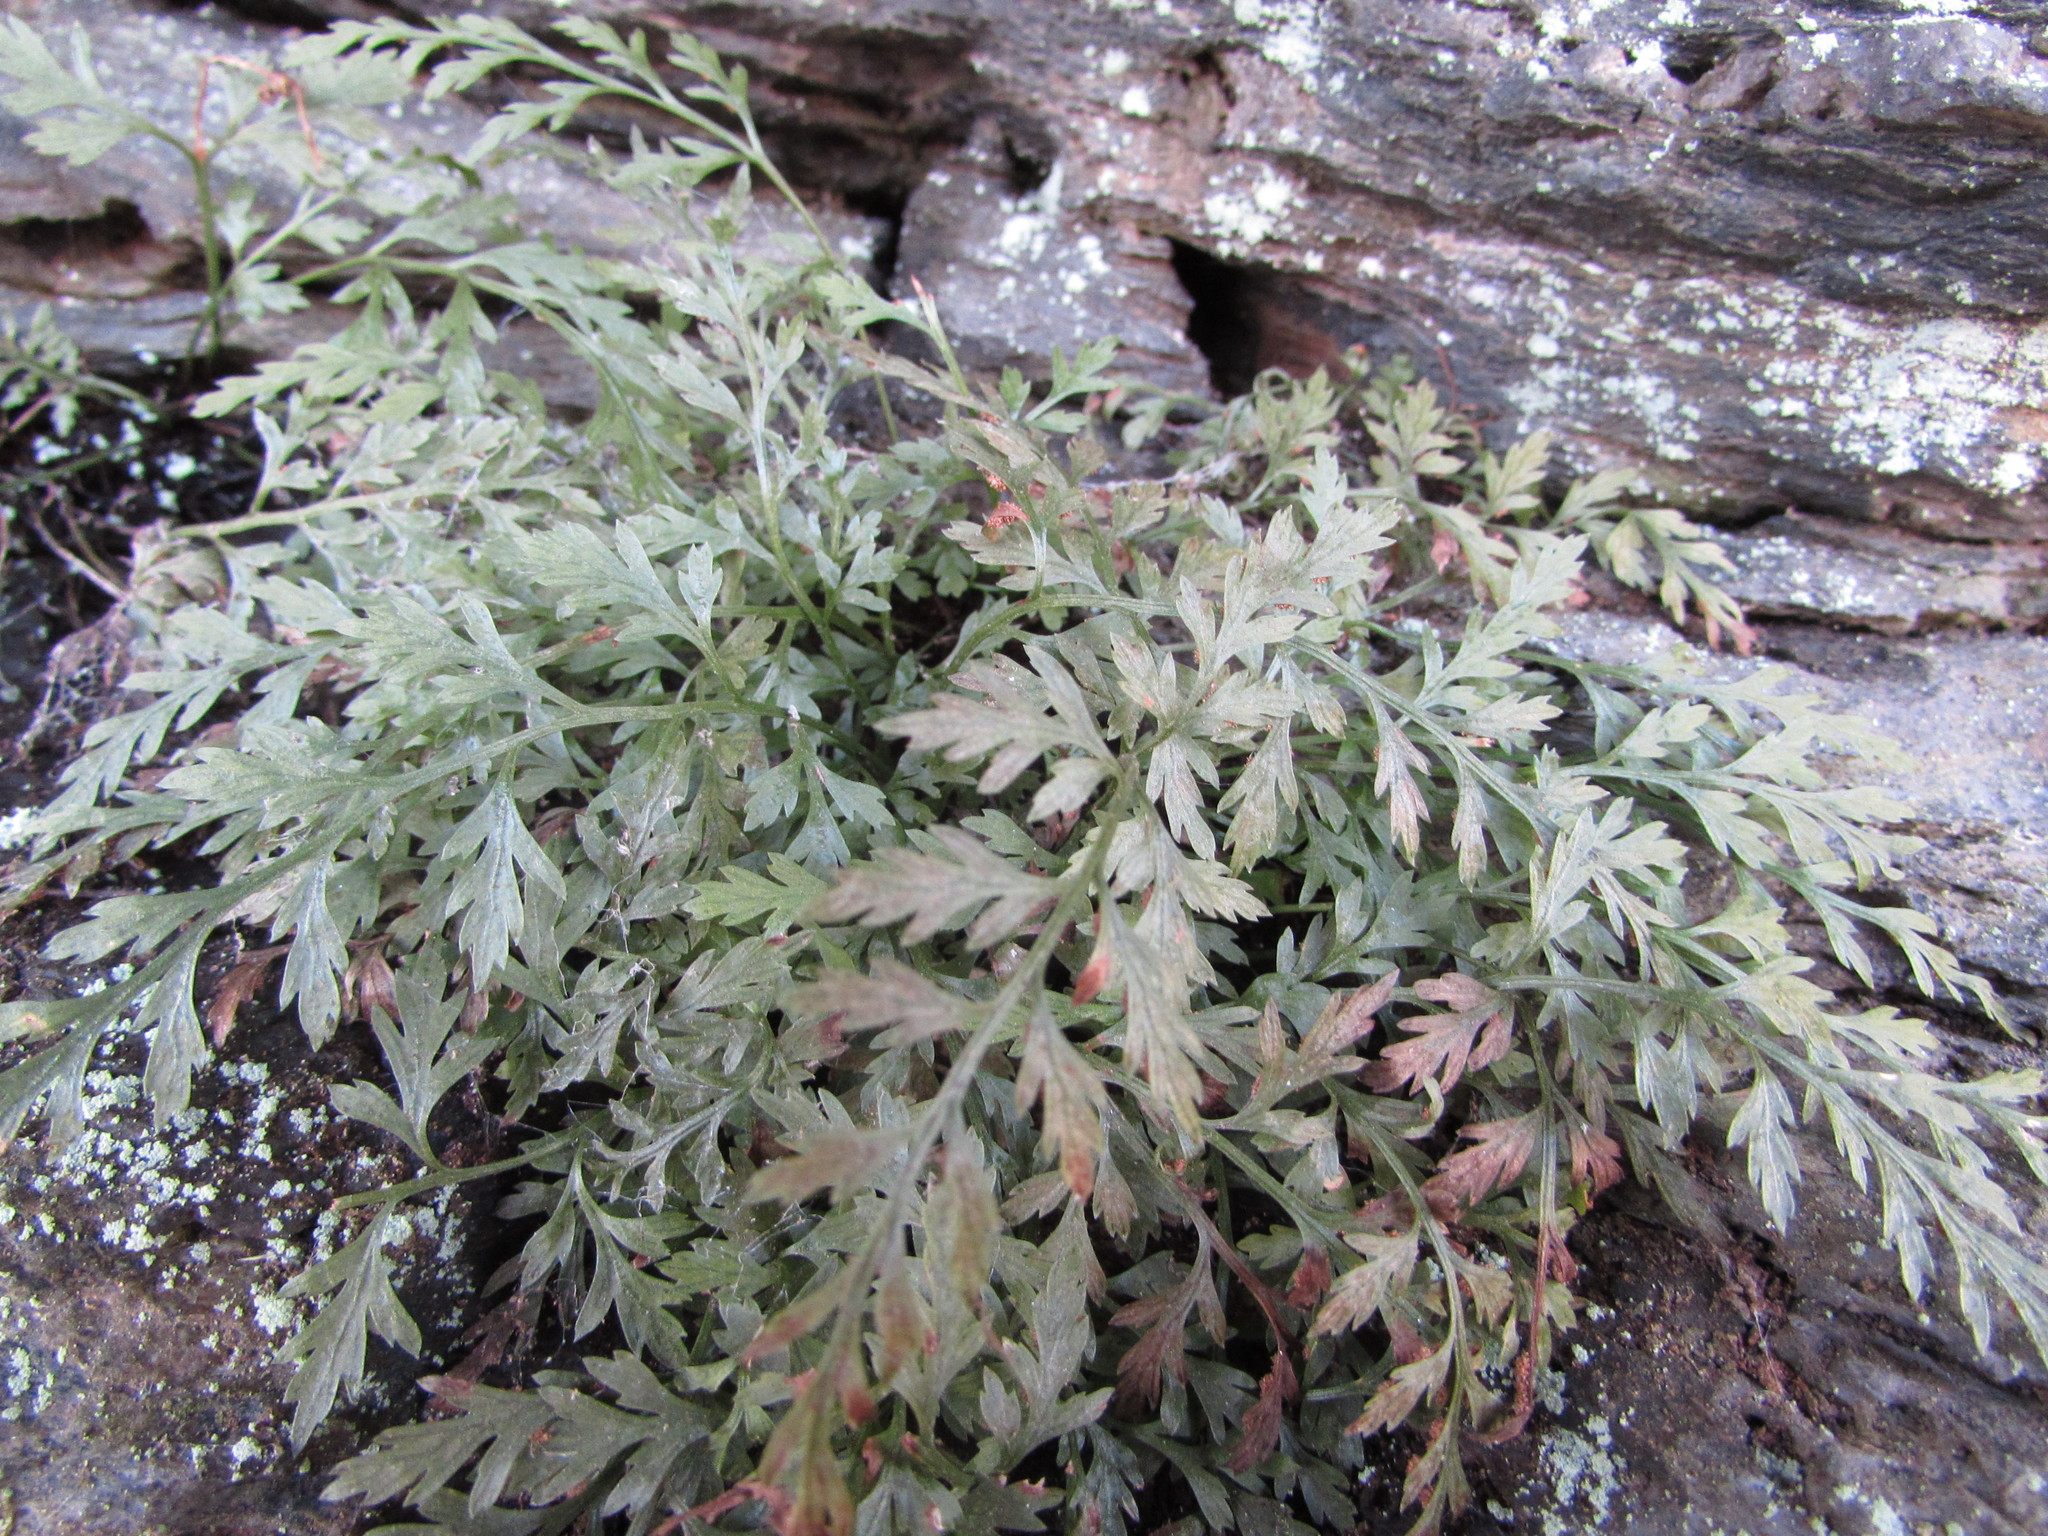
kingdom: Plantae
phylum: Tracheophyta
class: Polypodiopsida
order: Polypodiales
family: Aspleniaceae
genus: Asplenium
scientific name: Asplenium montanum
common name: Mountain spleenwort
